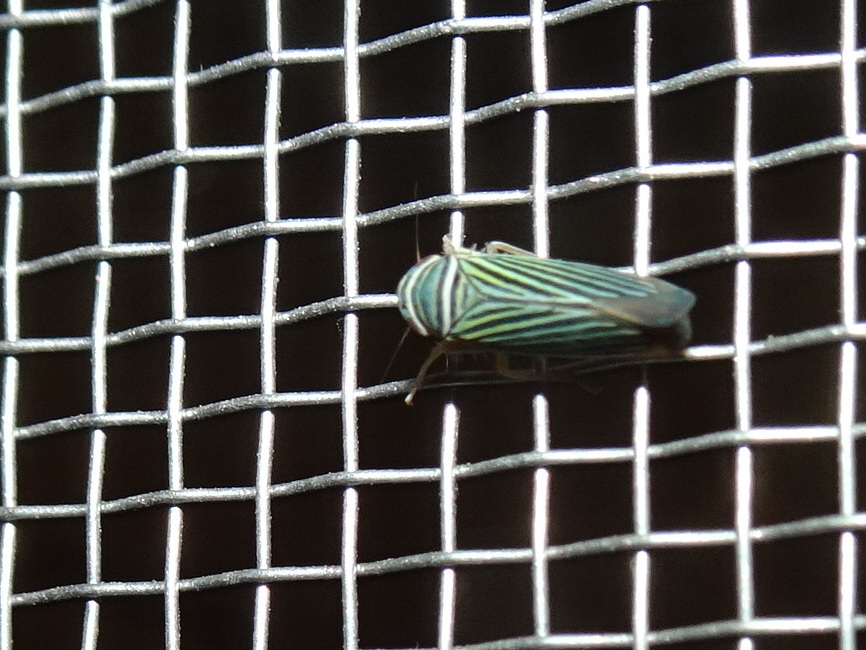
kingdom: Animalia
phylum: Arthropoda
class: Insecta
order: Hemiptera
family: Cicadellidae
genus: Tylozygus
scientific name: Tylozygus bifidus
